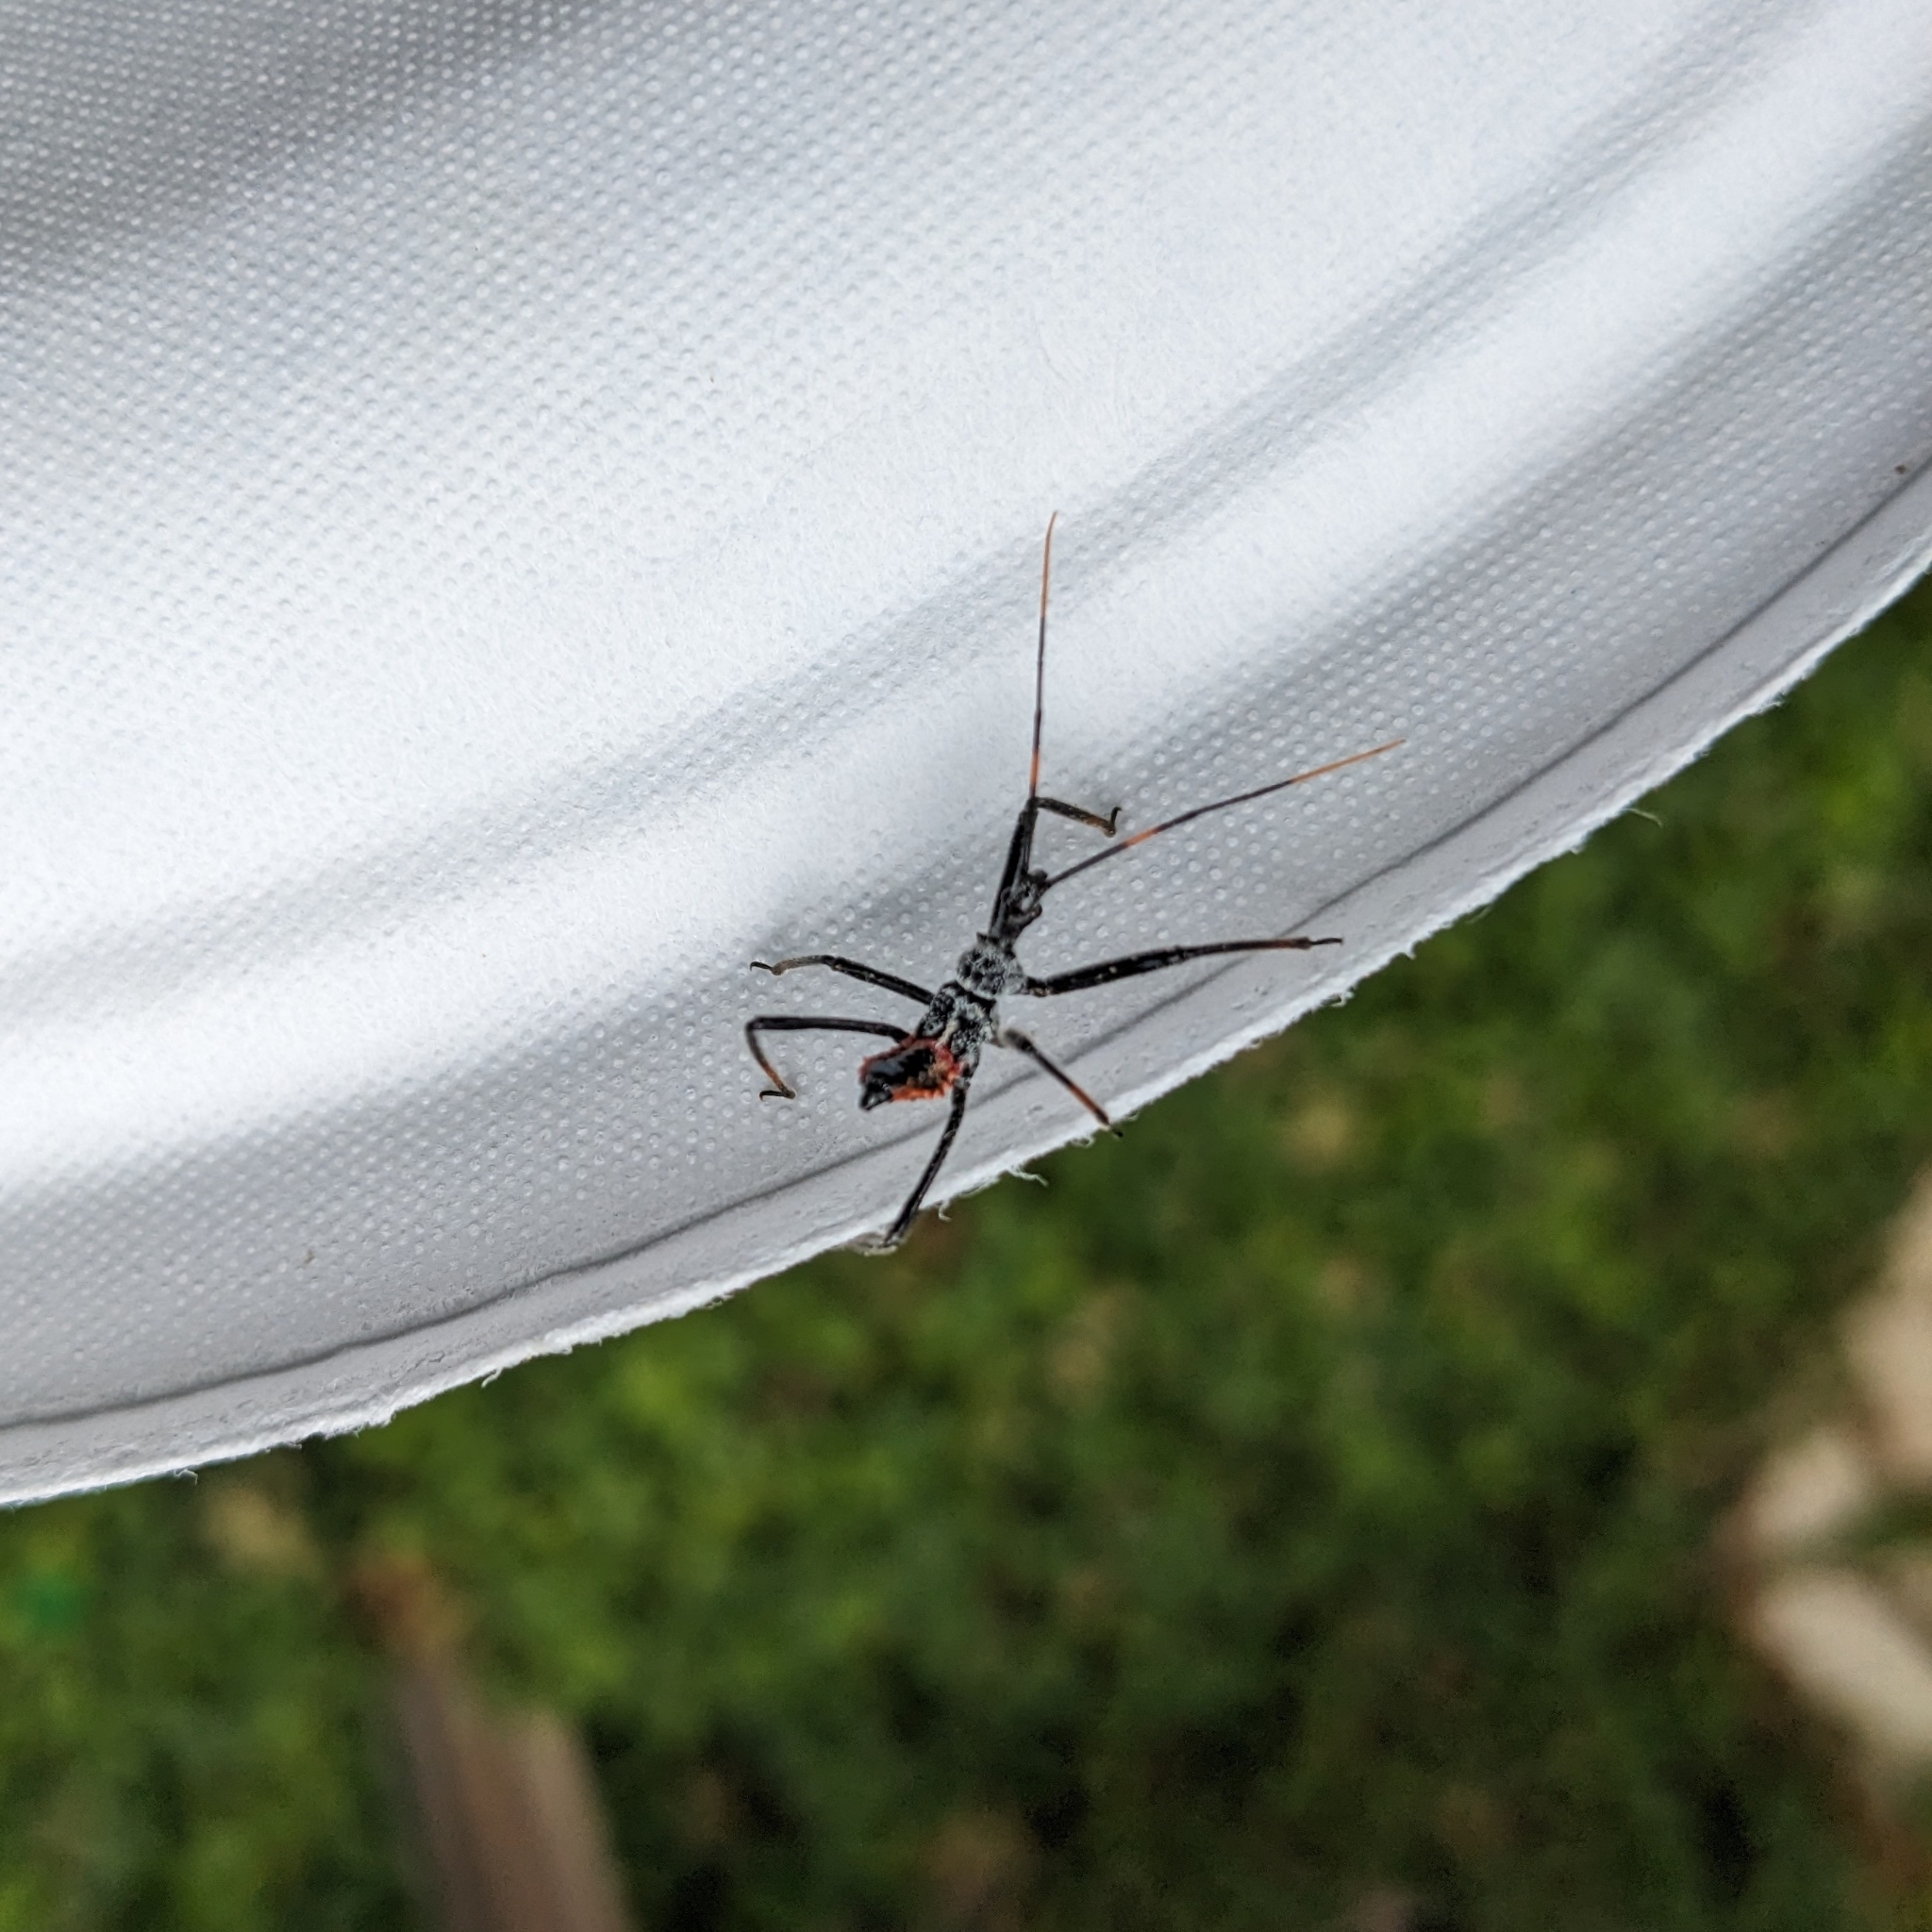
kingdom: Animalia
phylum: Arthropoda
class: Insecta
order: Hemiptera
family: Reduviidae
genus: Arilus
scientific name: Arilus cristatus
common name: North american wheel bug
